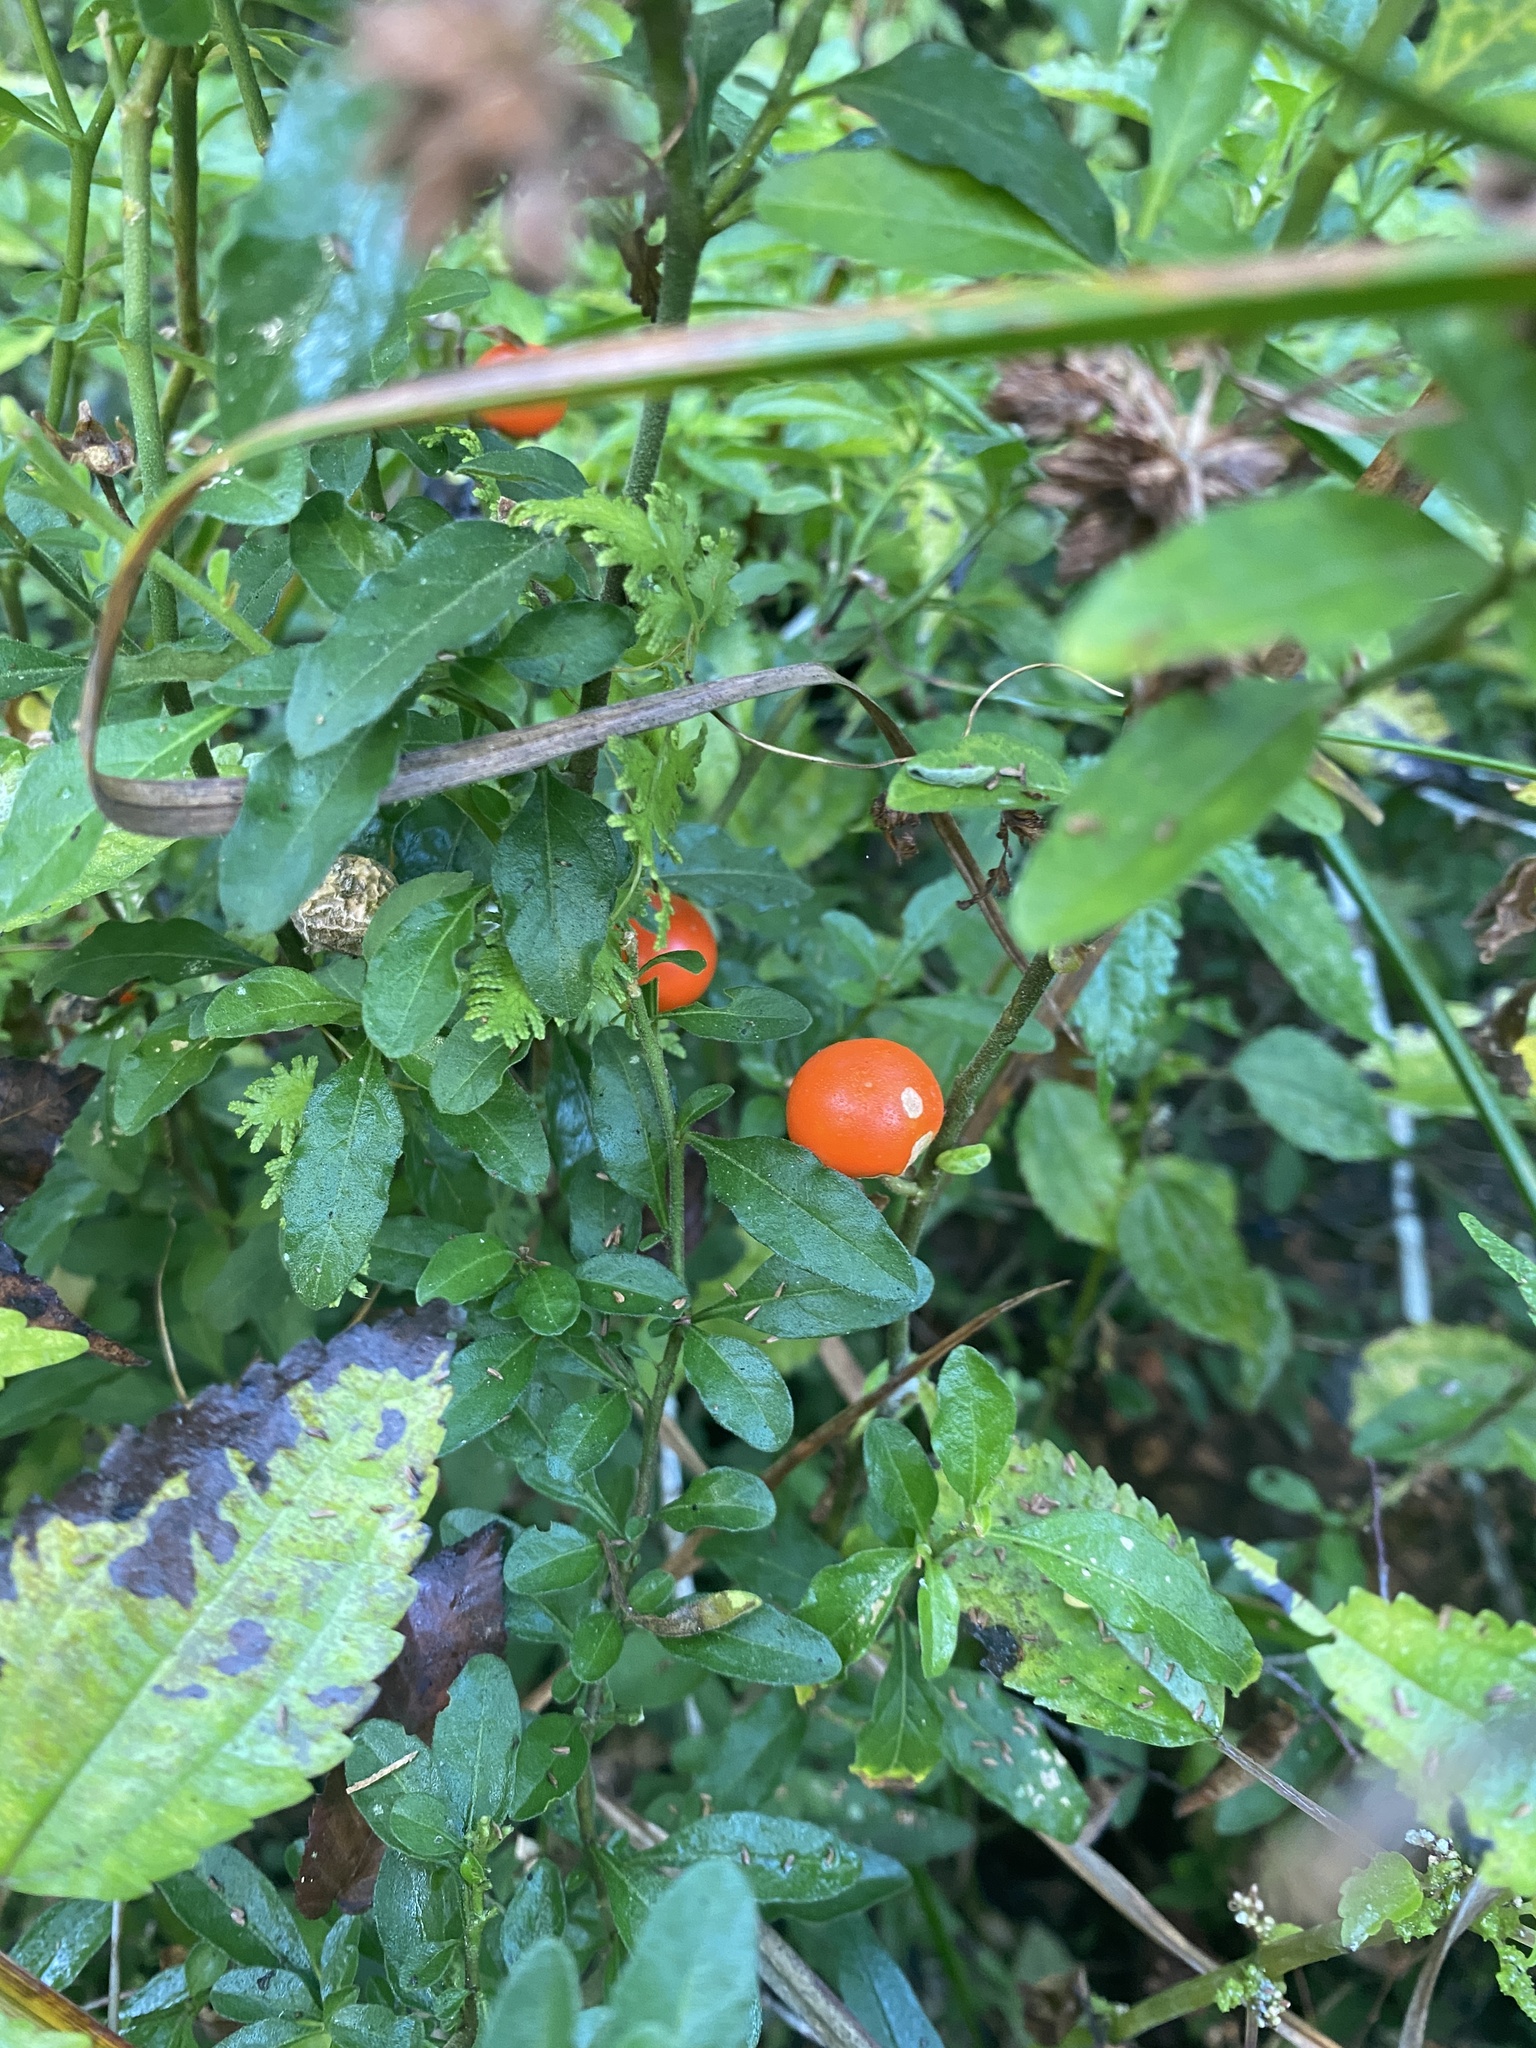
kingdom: Plantae
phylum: Tracheophyta
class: Magnoliopsida
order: Solanales
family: Solanaceae
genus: Solanum
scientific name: Solanum pseudocapsicum
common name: Jerusalem cherry
